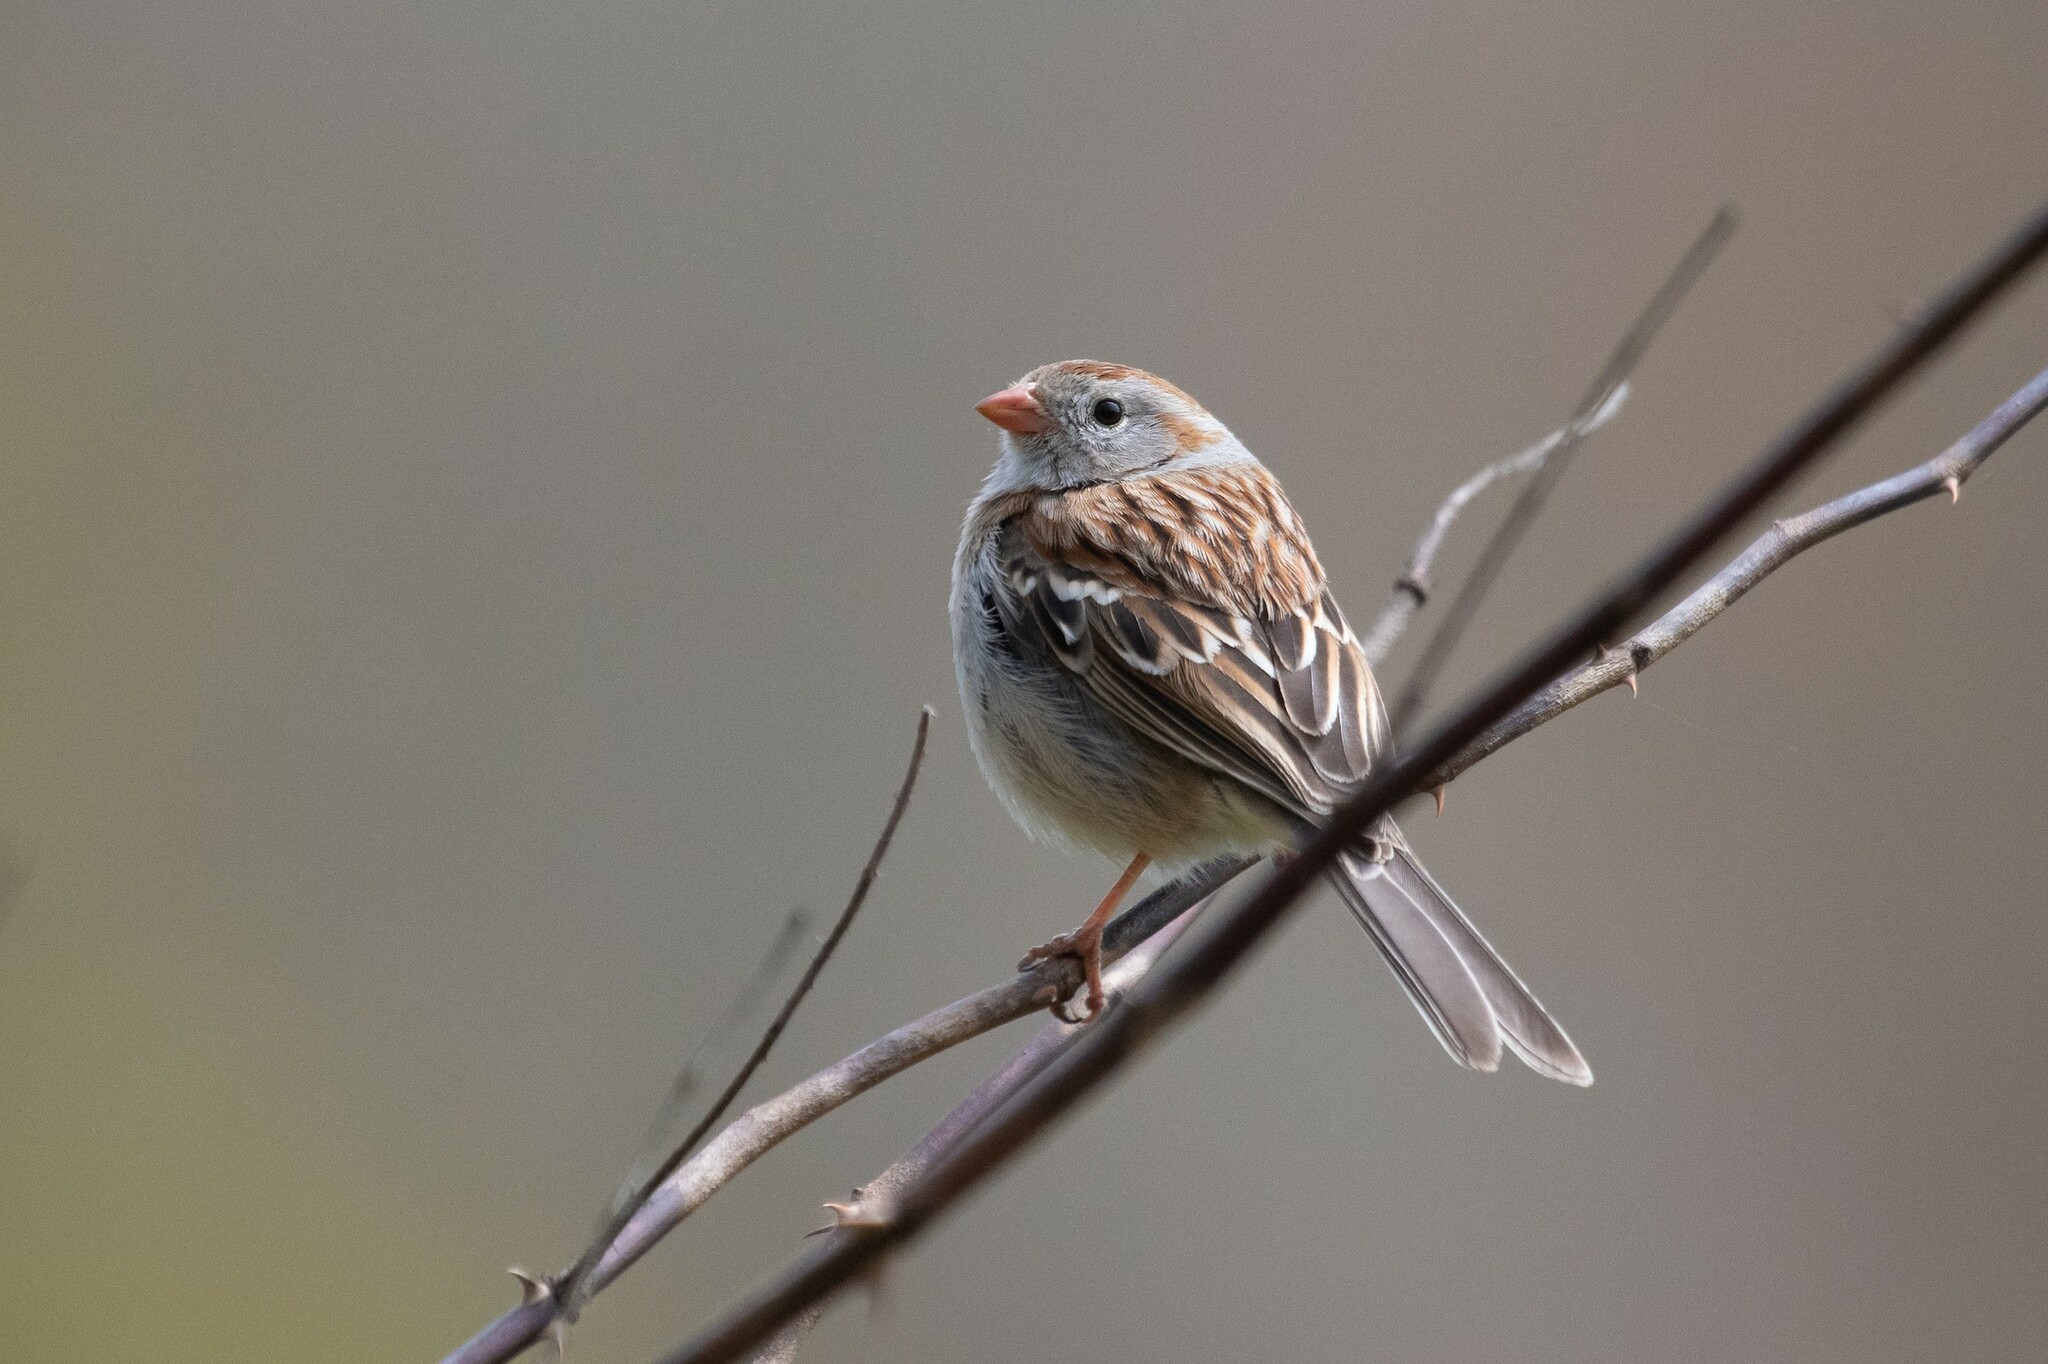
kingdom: Animalia
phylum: Chordata
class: Aves
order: Passeriformes
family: Passerellidae
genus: Spizella
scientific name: Spizella pusilla
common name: Field sparrow
